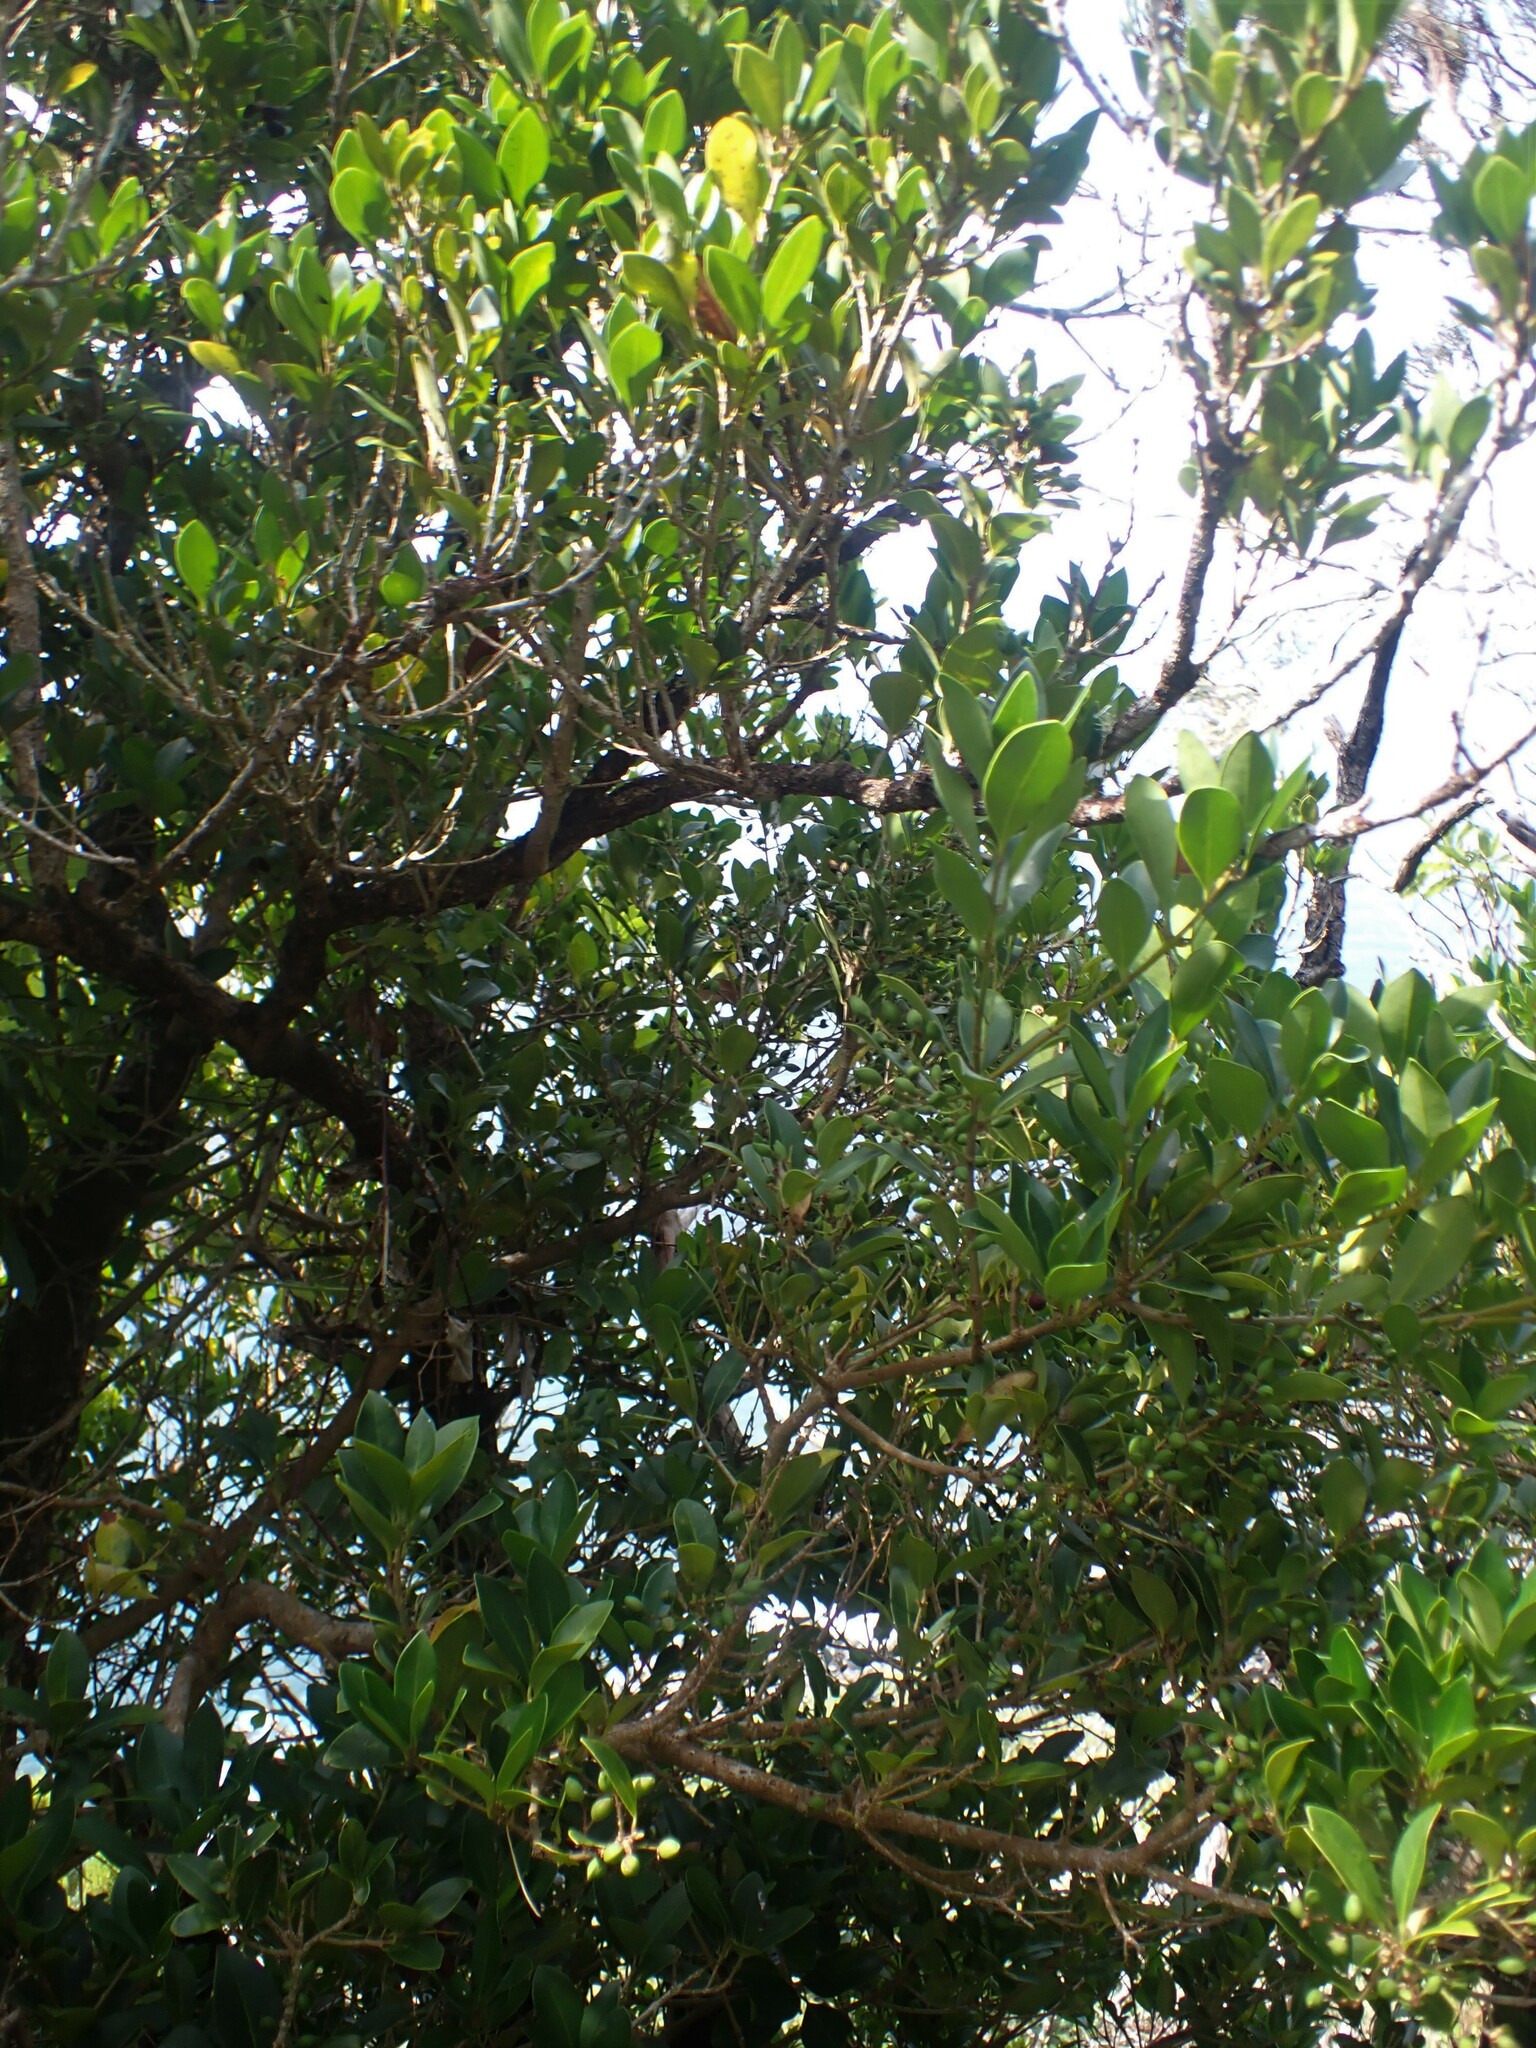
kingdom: Plantae
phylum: Tracheophyta
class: Magnoliopsida
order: Lamiales
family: Oleaceae
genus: Picconia
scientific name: Picconia azorica
